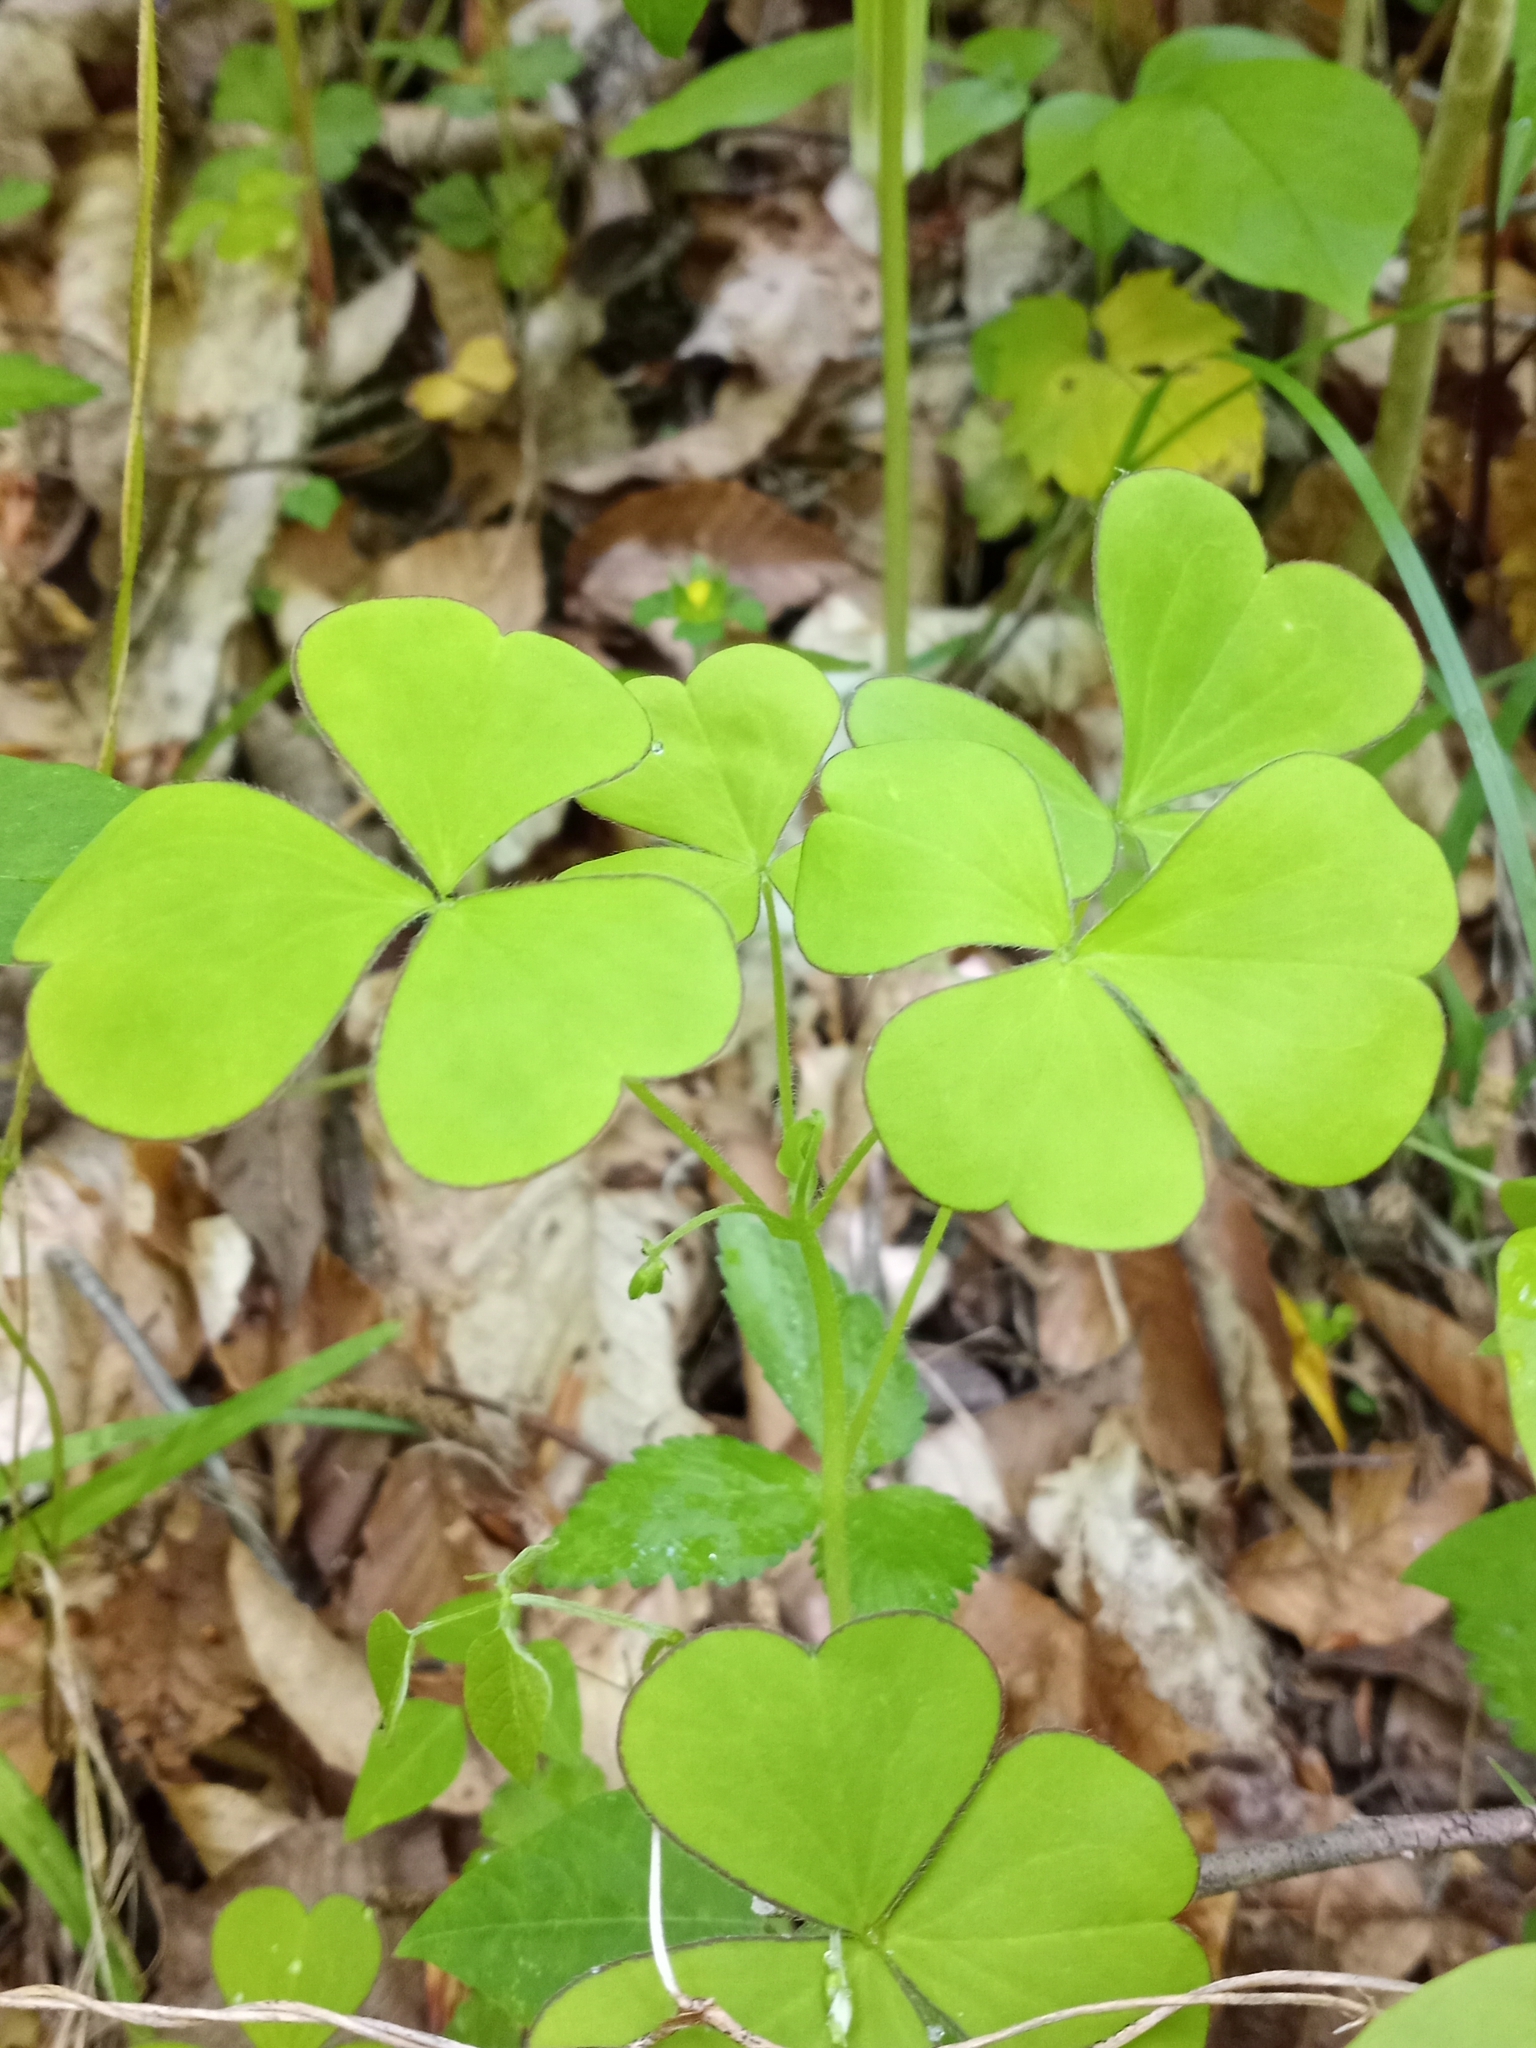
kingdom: Plantae
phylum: Tracheophyta
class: Magnoliopsida
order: Oxalidales
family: Oxalidaceae
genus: Oxalis
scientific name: Oxalis grandis
